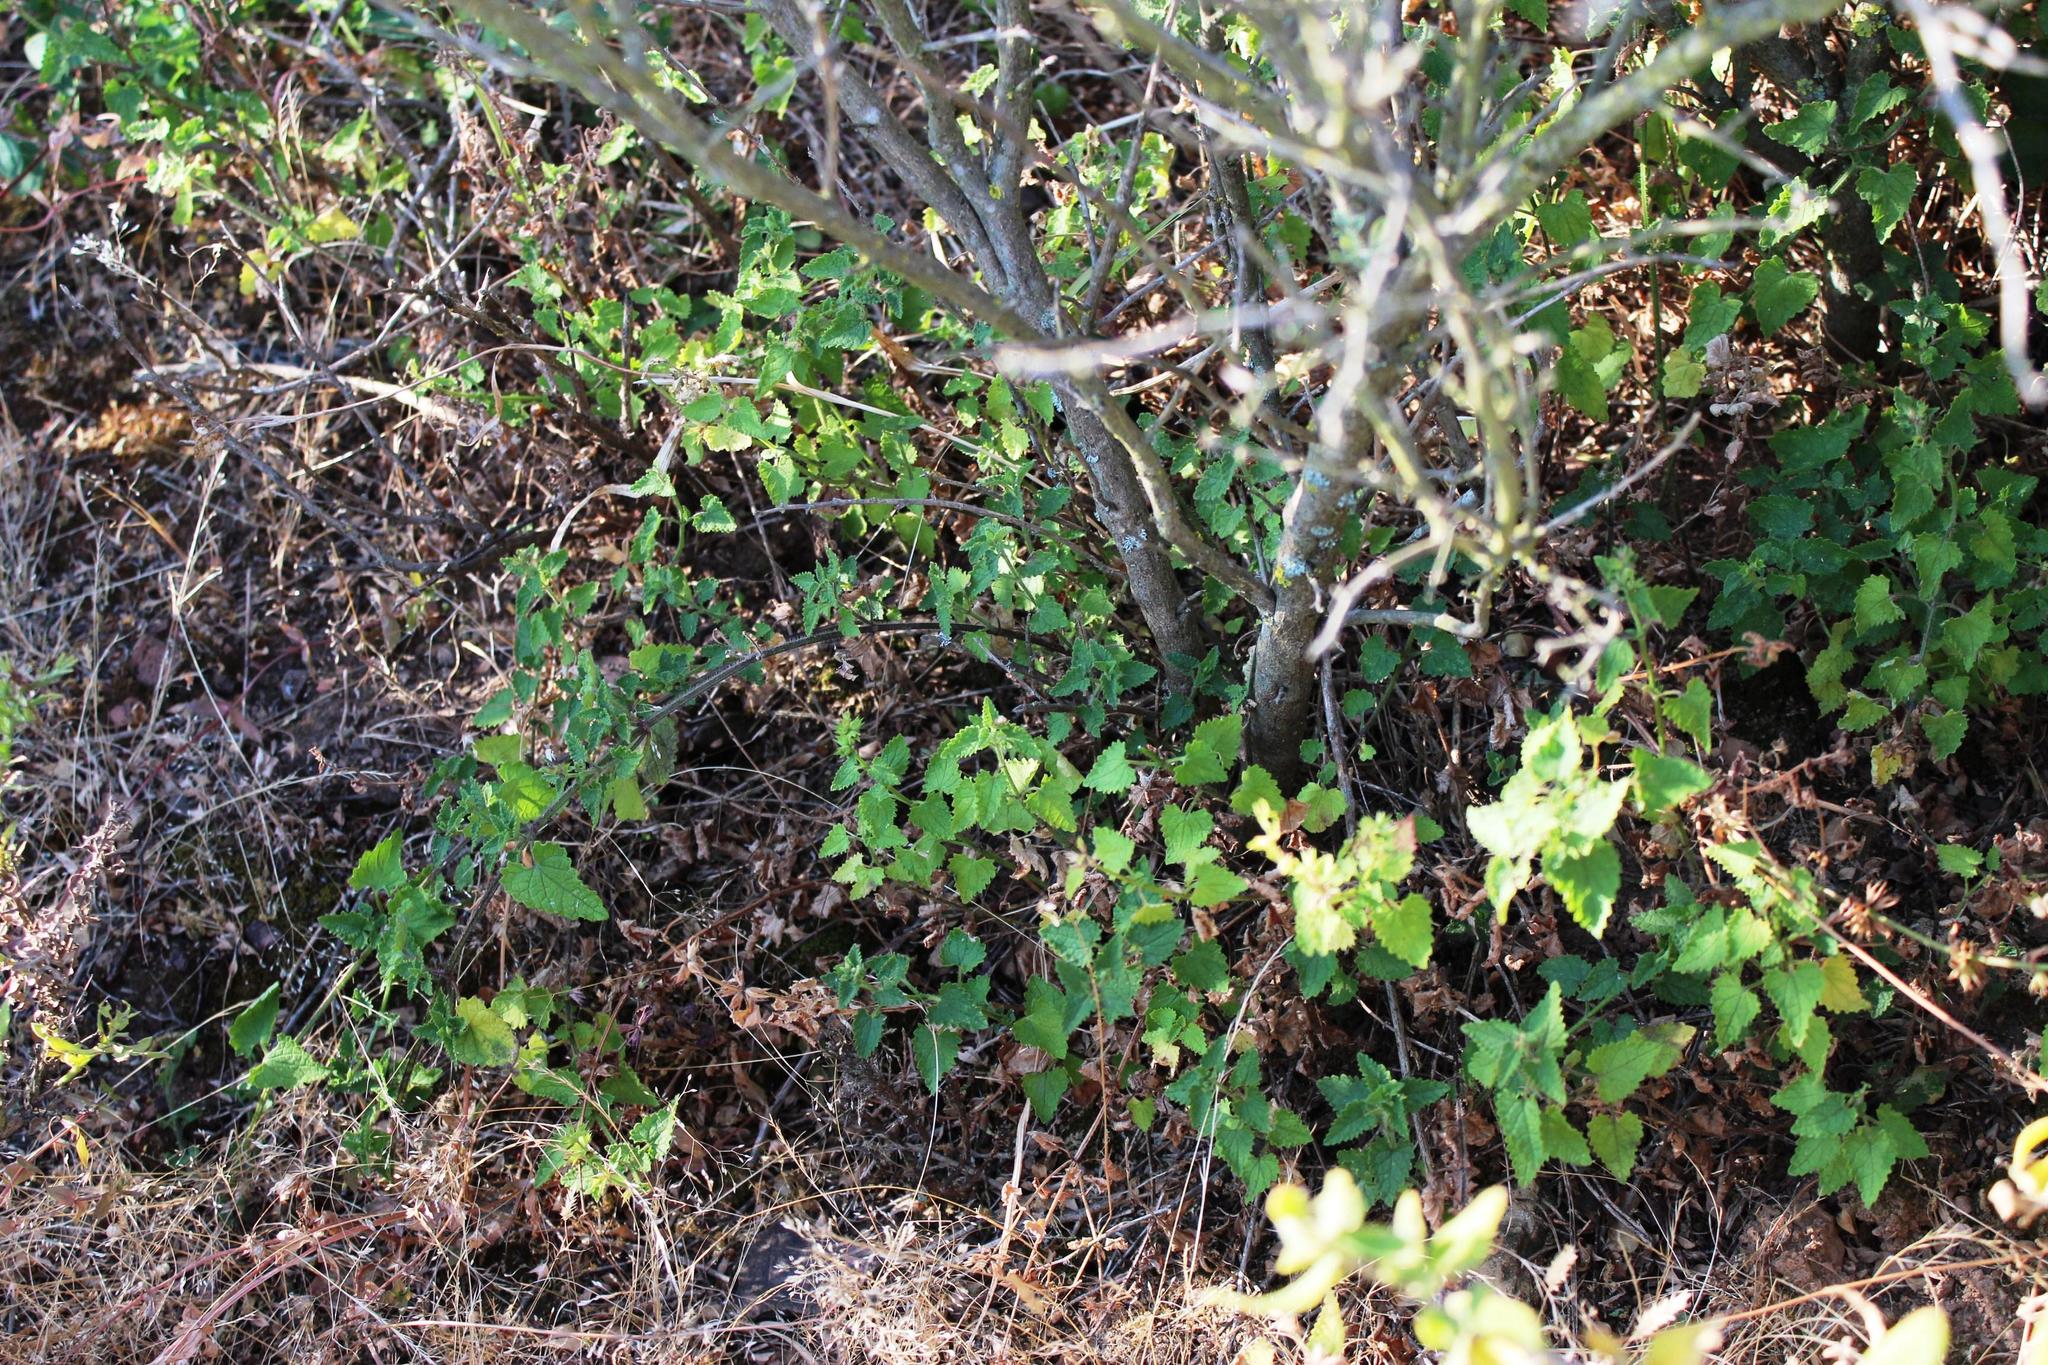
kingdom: Plantae
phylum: Tracheophyta
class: Magnoliopsida
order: Lamiales
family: Lamiaceae
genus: Stachys
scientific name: Stachys aethiopica
